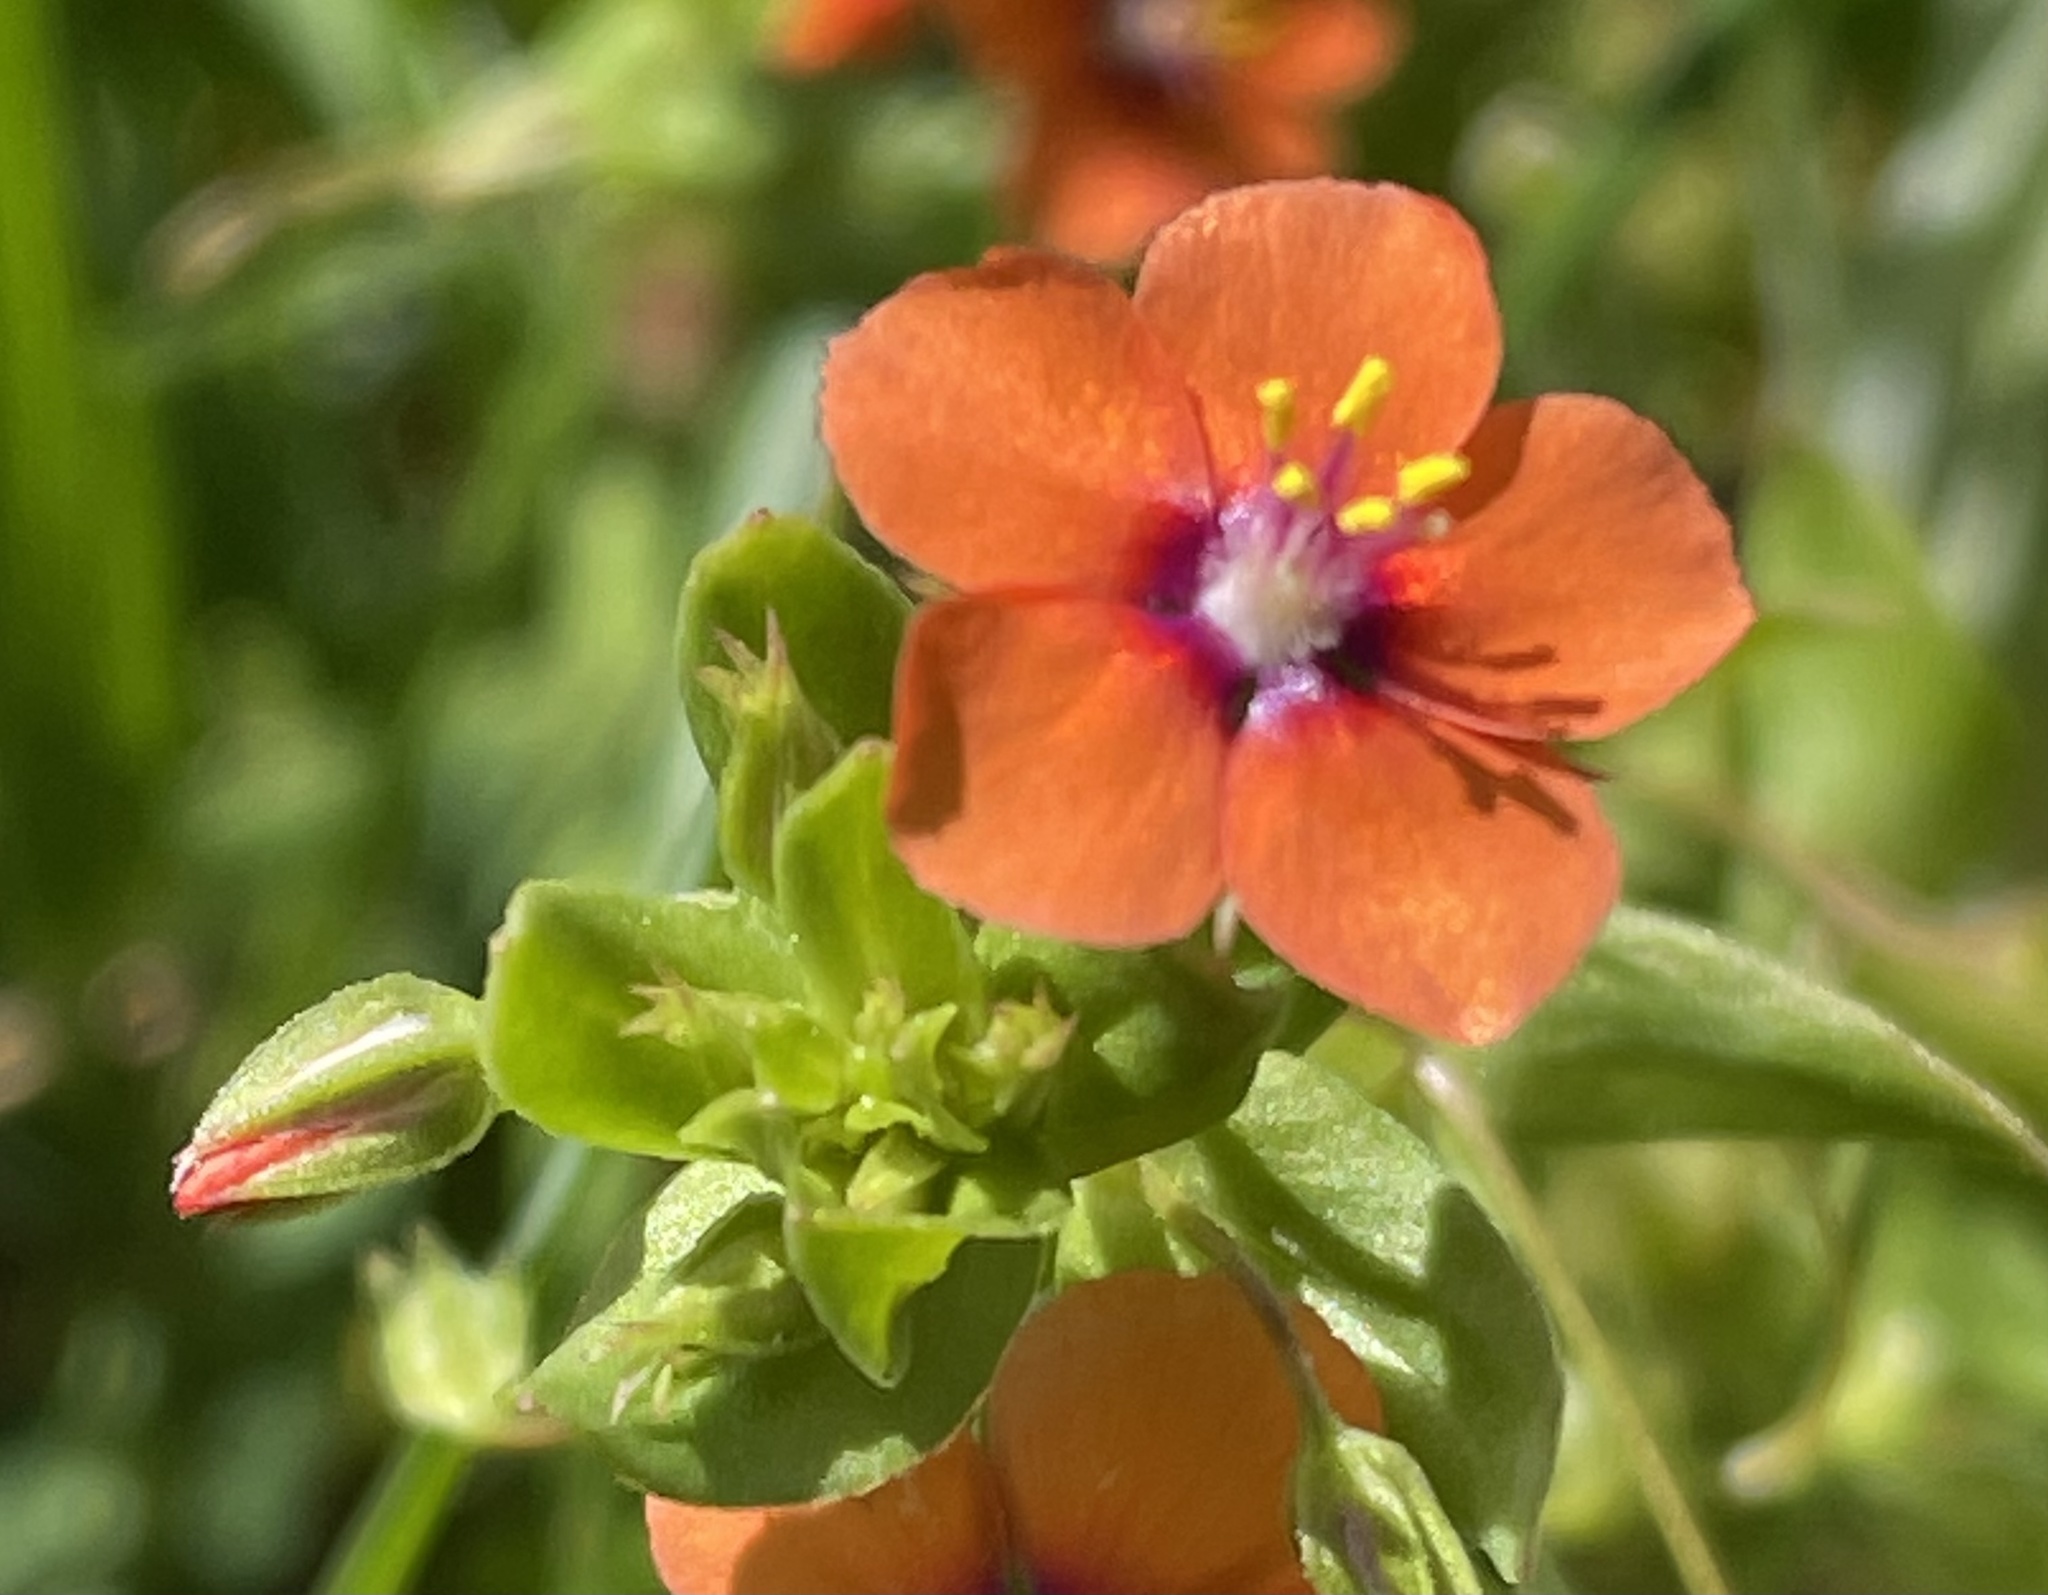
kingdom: Plantae
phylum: Tracheophyta
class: Magnoliopsida
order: Ericales
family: Primulaceae
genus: Lysimachia
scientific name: Lysimachia arvensis
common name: Scarlet pimpernel
